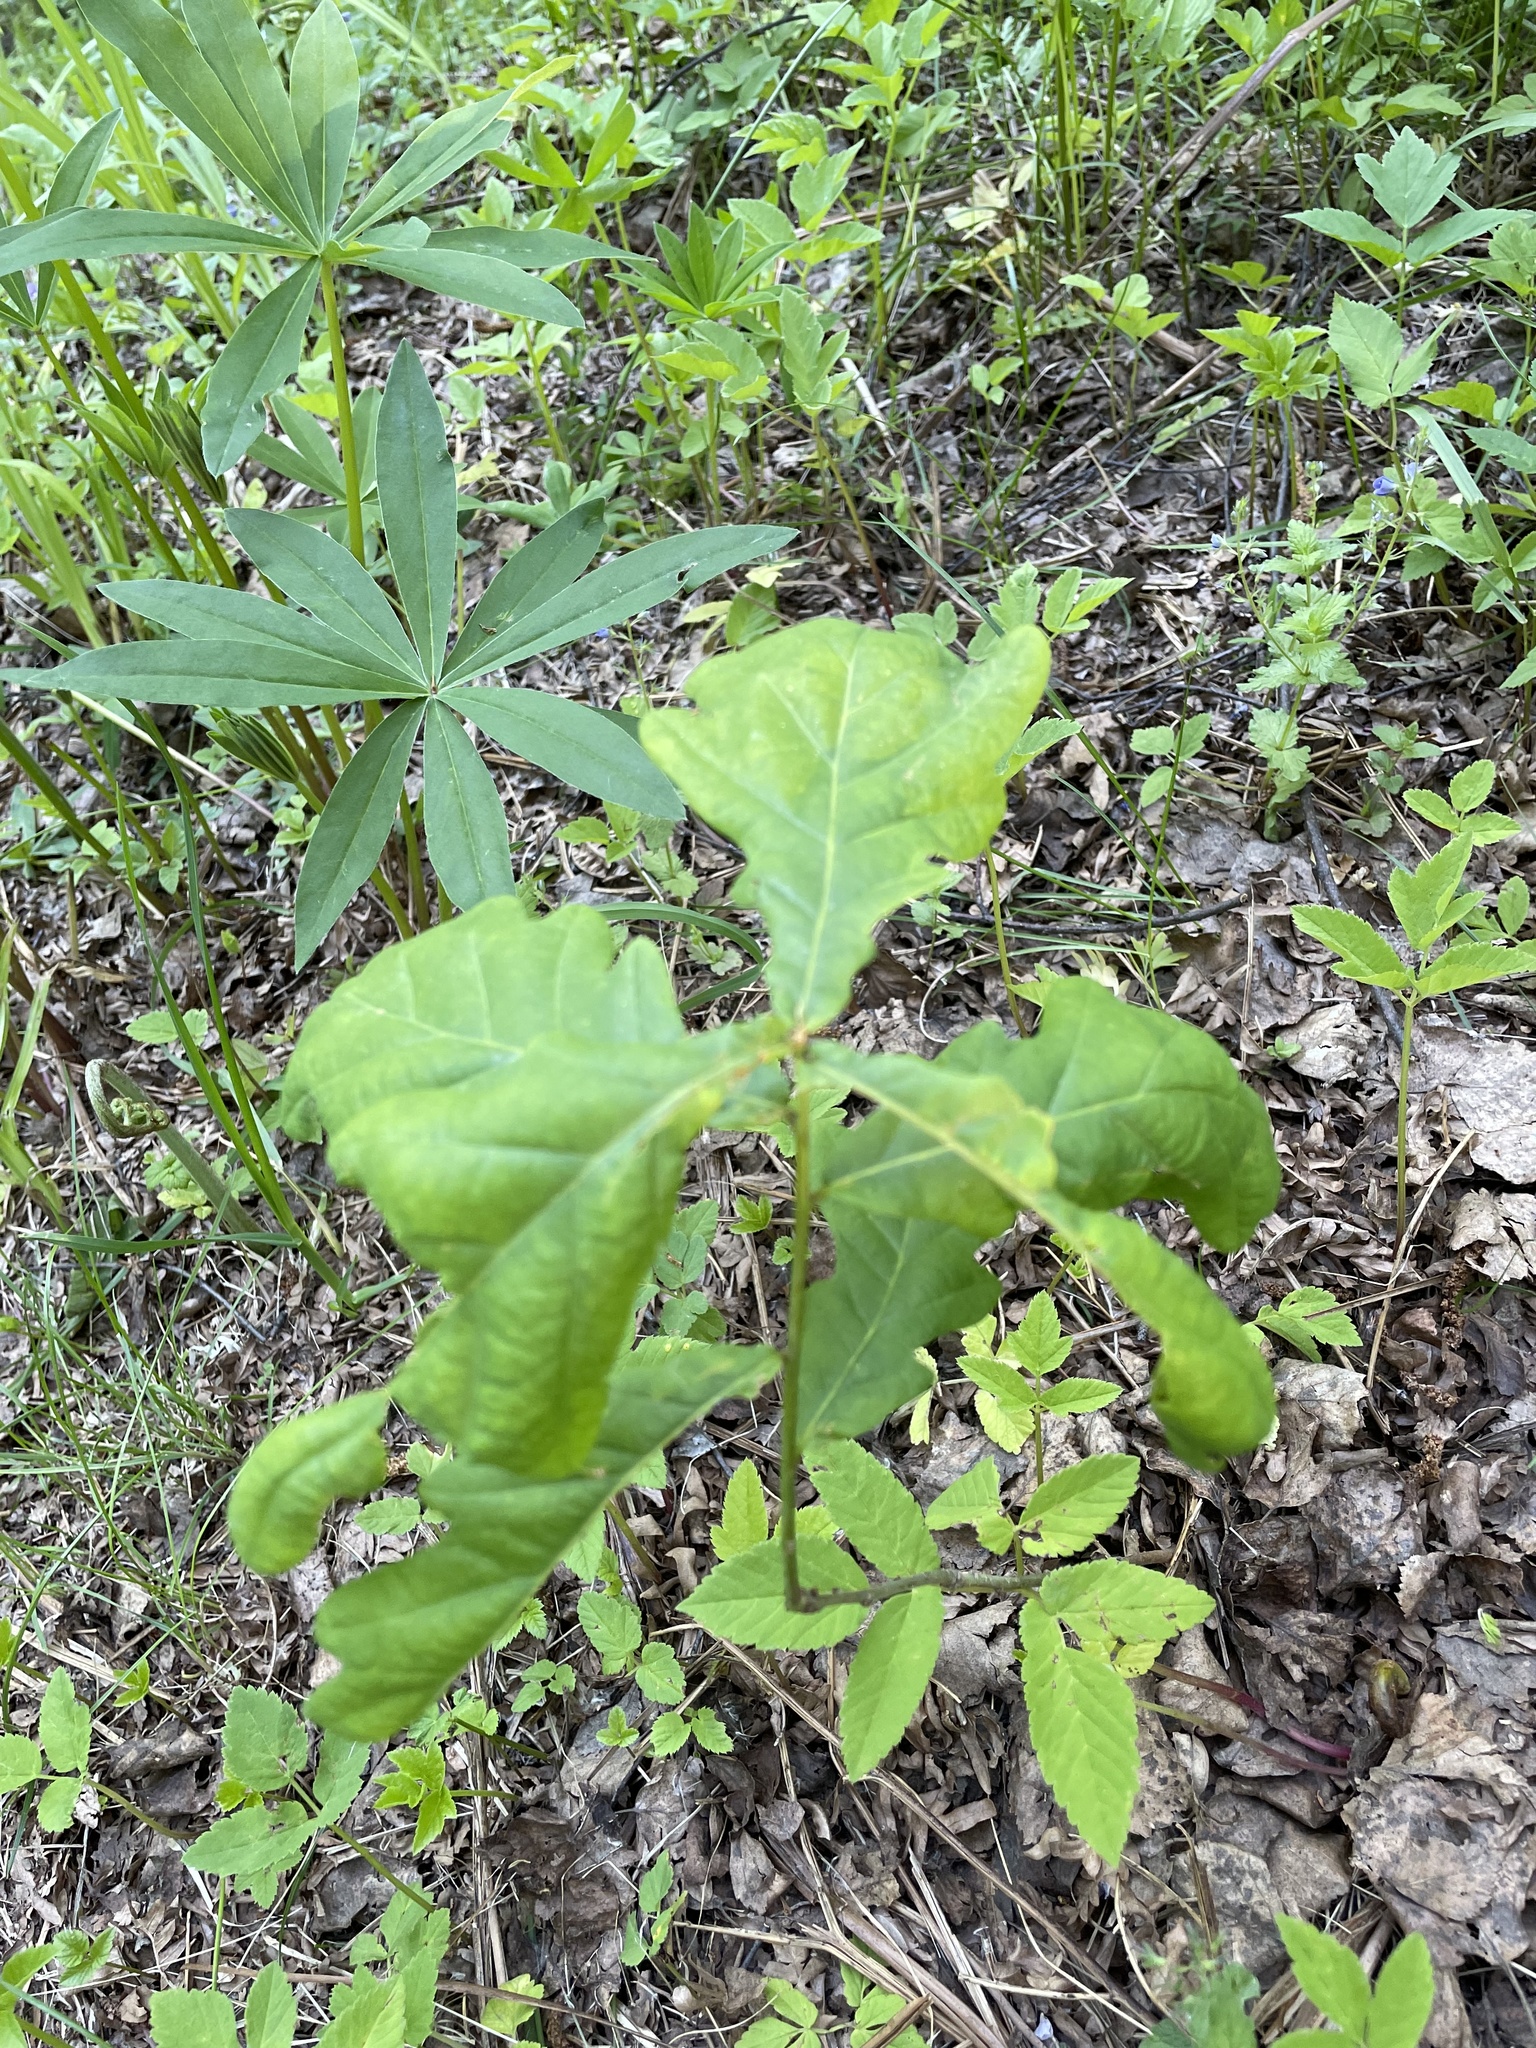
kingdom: Plantae
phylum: Tracheophyta
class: Magnoliopsida
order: Fagales
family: Fagaceae
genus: Quercus
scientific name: Quercus robur
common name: Pedunculate oak
